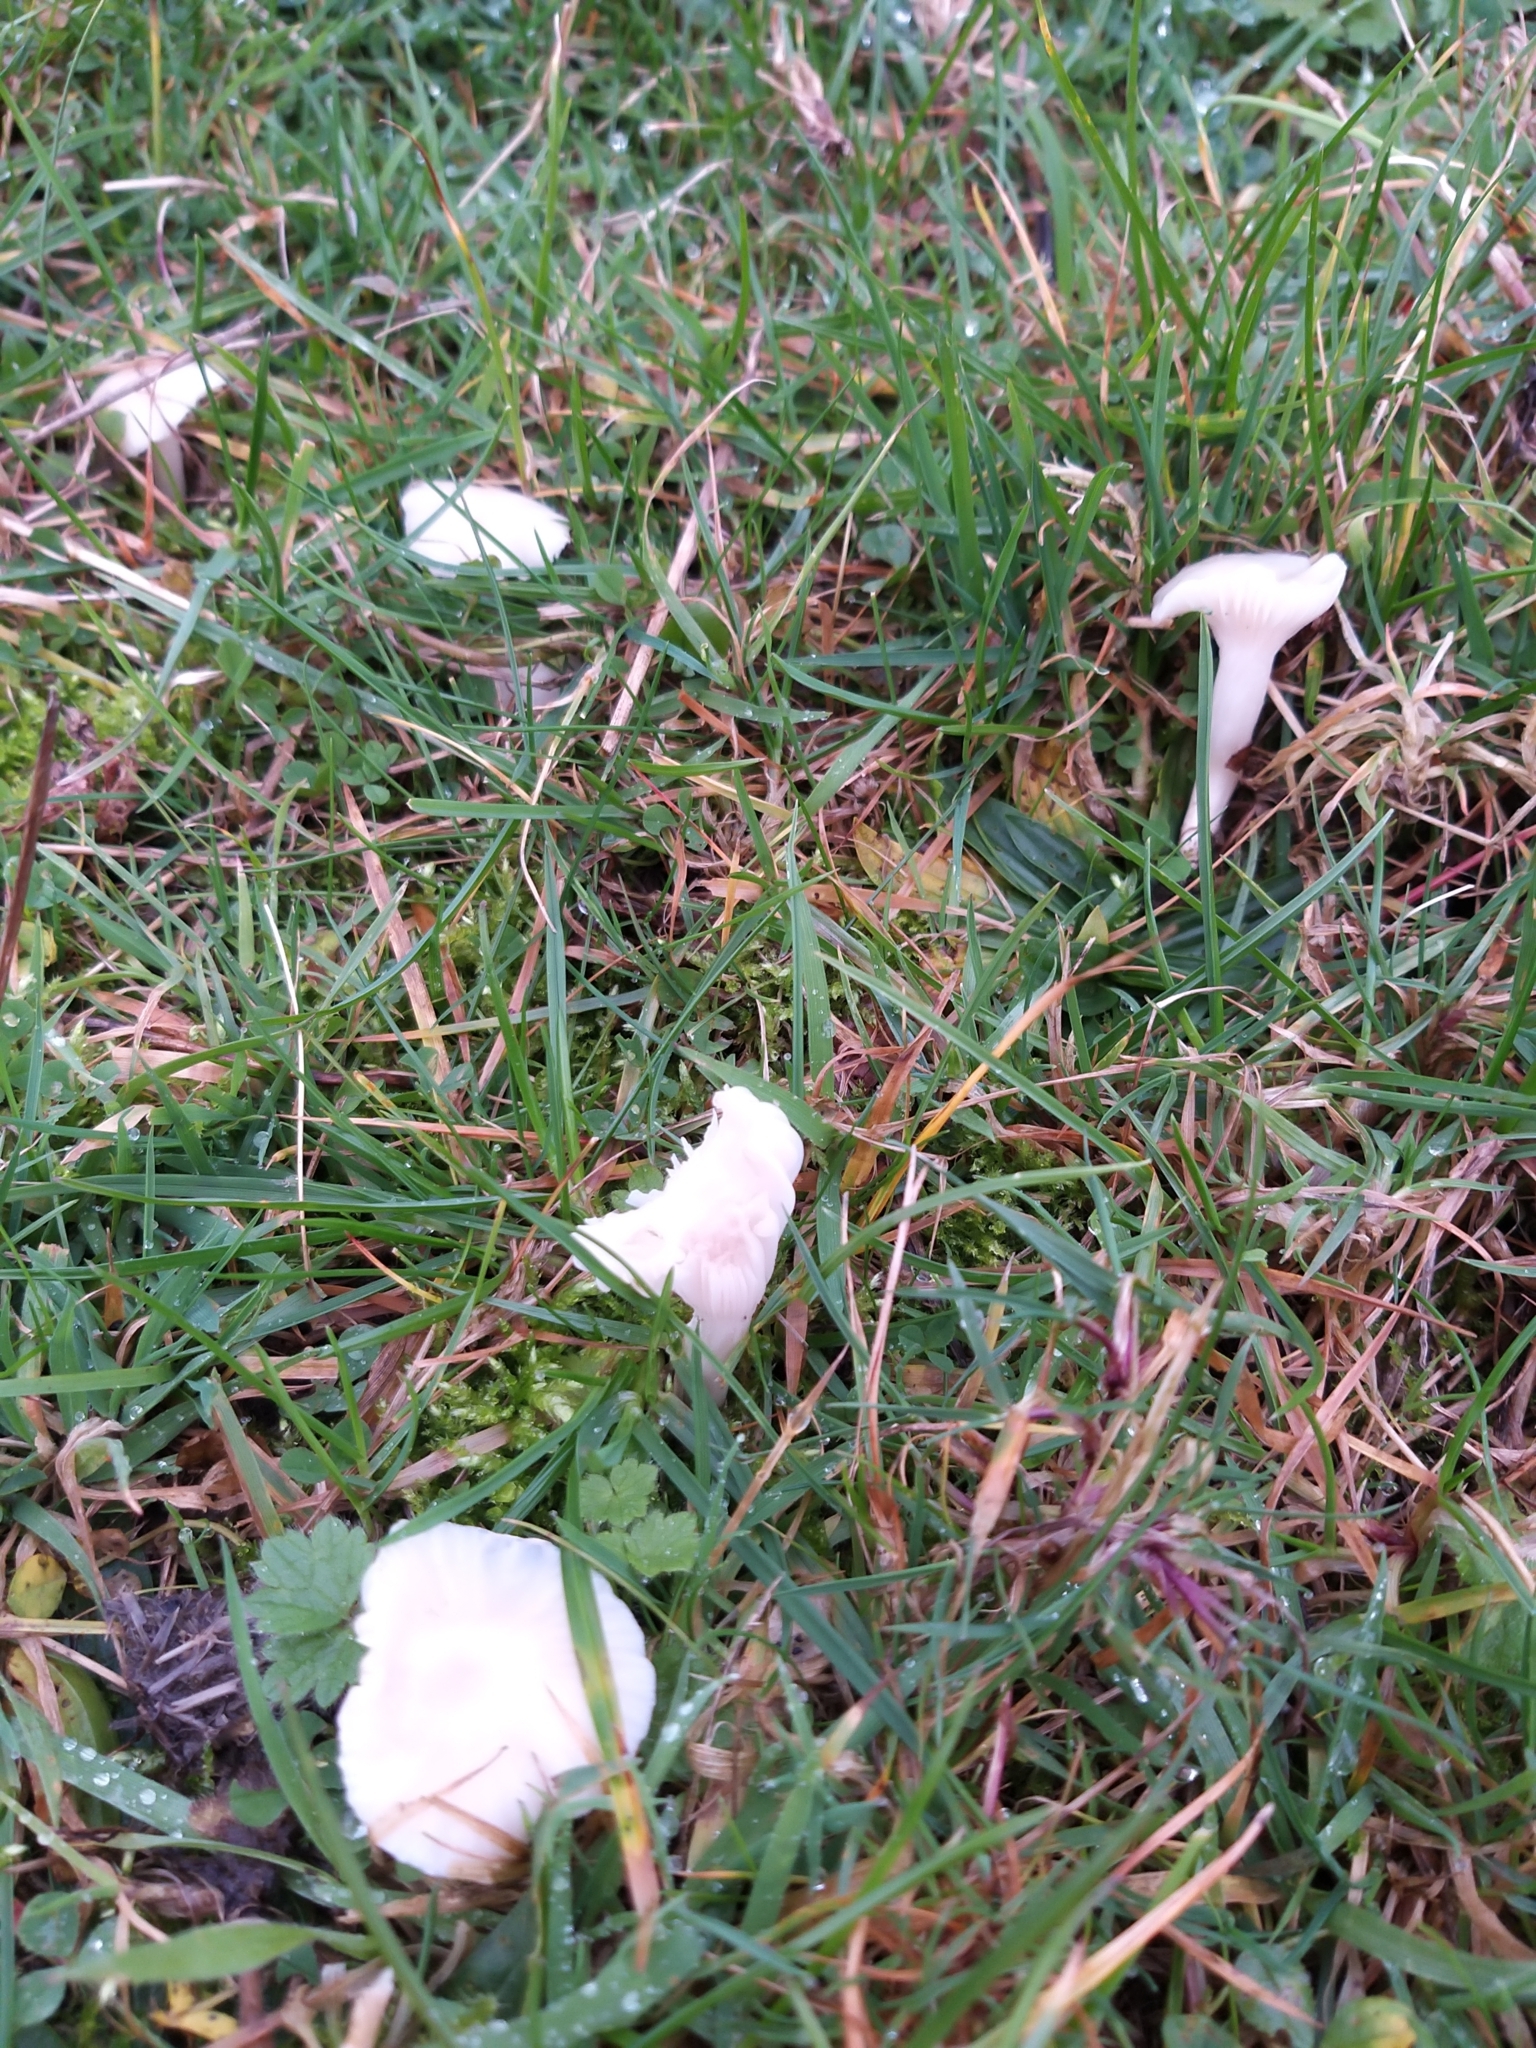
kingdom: Fungi
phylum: Basidiomycota
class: Agaricomycetes
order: Agaricales
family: Hygrophoraceae
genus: Cuphophyllus
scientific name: Cuphophyllus virgineus
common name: Snowy waxcap
